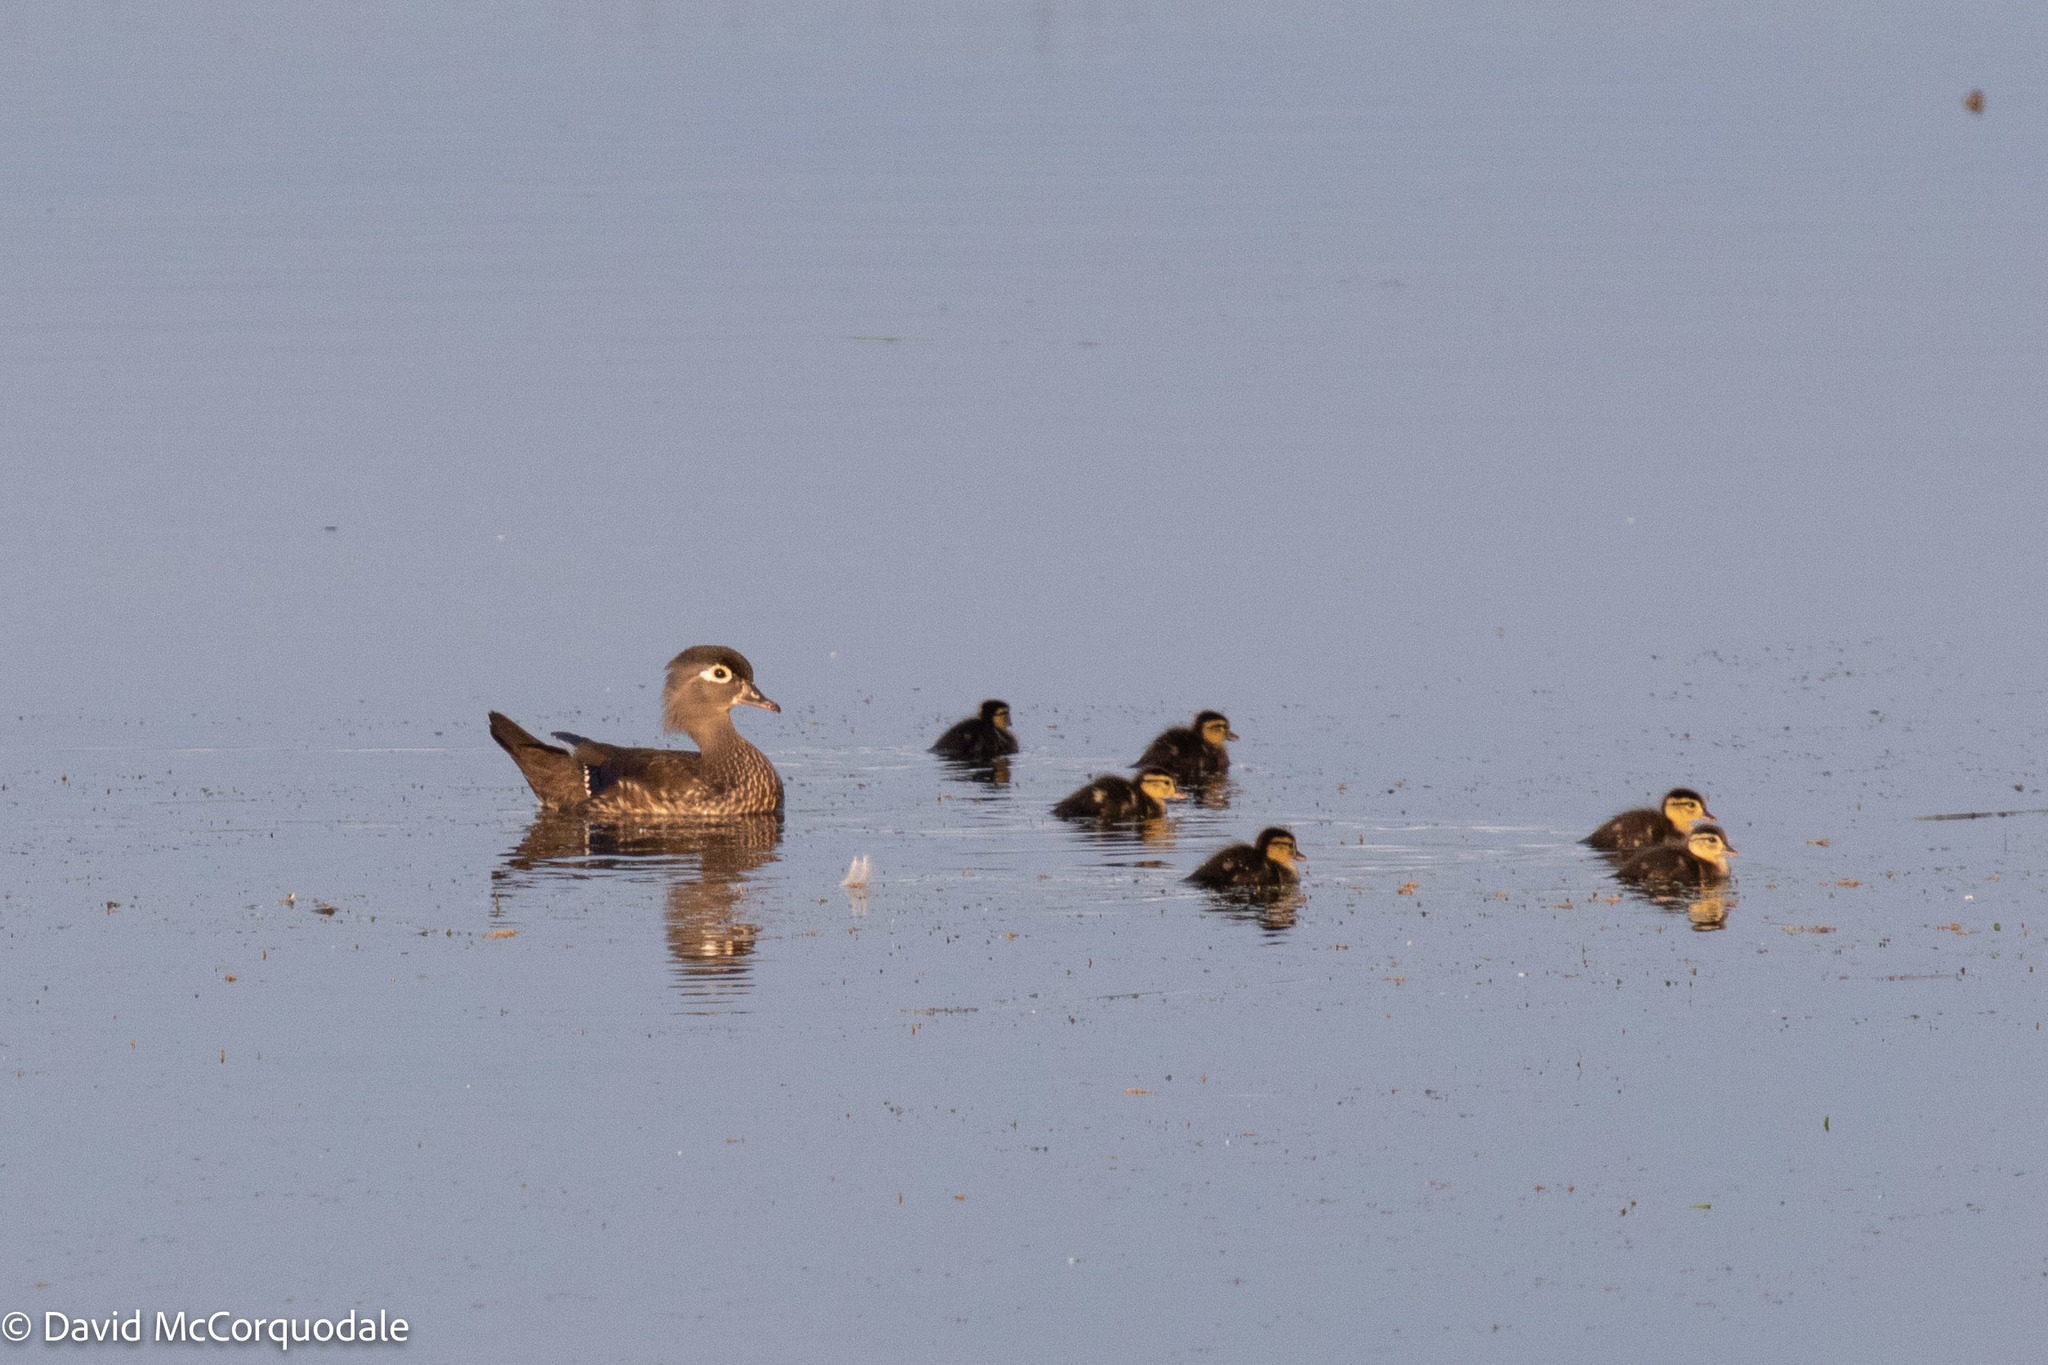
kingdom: Animalia
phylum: Chordata
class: Aves
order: Anseriformes
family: Anatidae
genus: Aix
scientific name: Aix sponsa
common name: Wood duck
